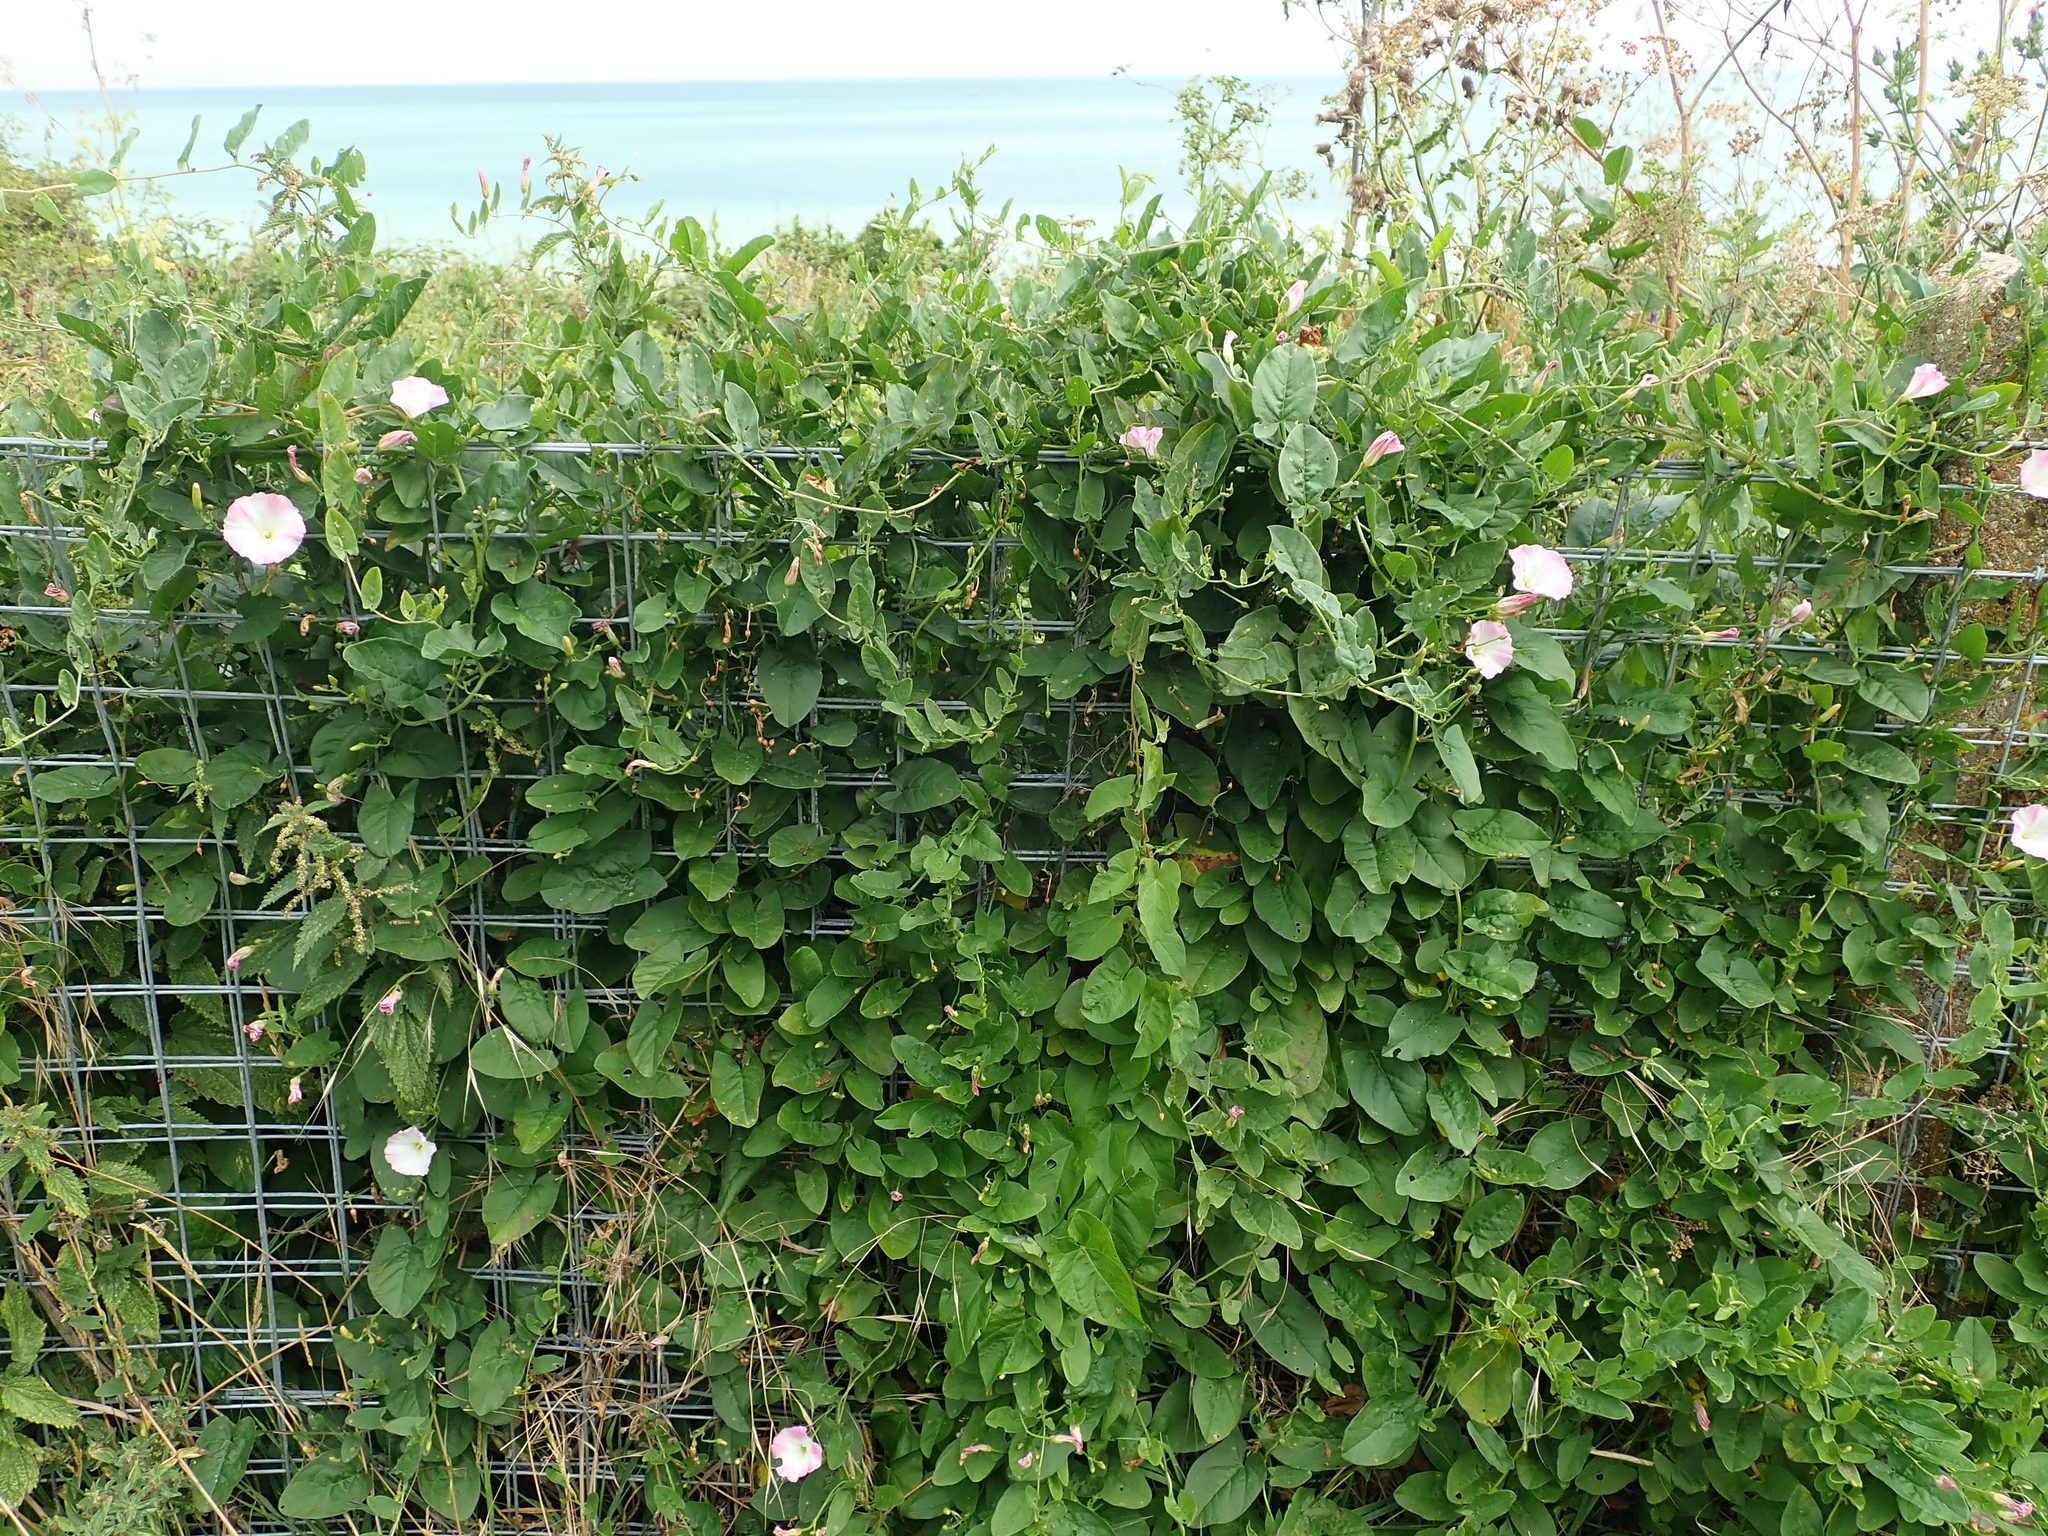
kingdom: Plantae
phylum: Tracheophyta
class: Magnoliopsida
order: Solanales
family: Convolvulaceae
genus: Convolvulus
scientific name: Convolvulus arvensis
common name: Field bindweed
